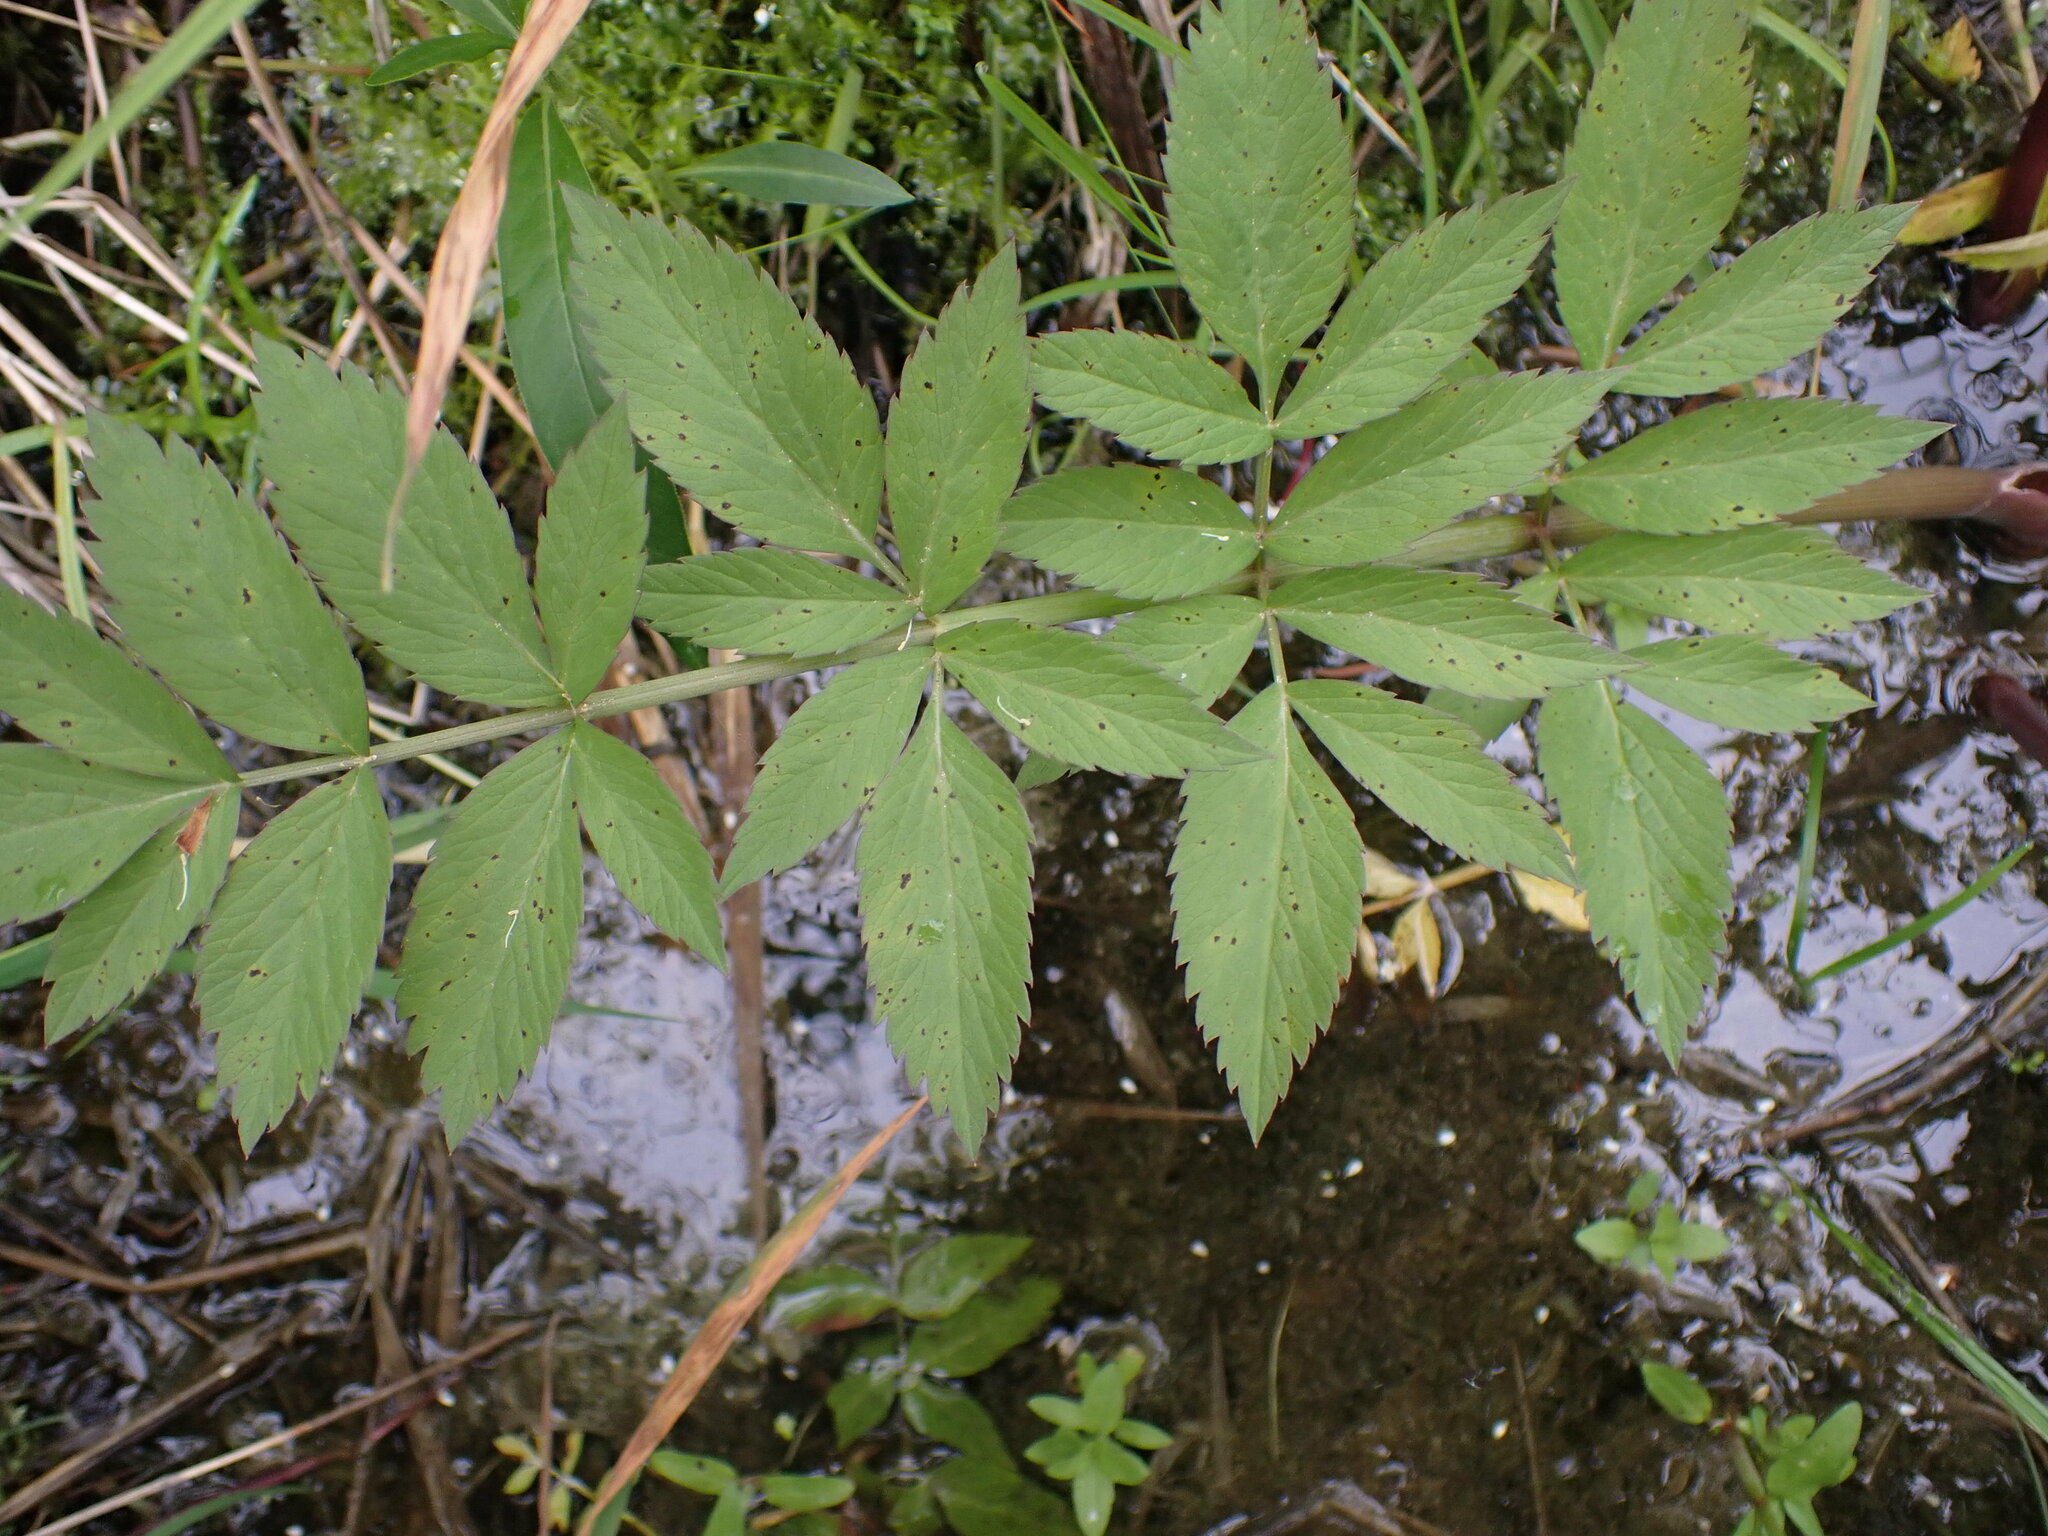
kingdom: Plantae
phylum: Tracheophyta
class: Magnoliopsida
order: Apiales
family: Apiaceae
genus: Cicuta
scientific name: Cicuta douglasii
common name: Western water-hemlock
